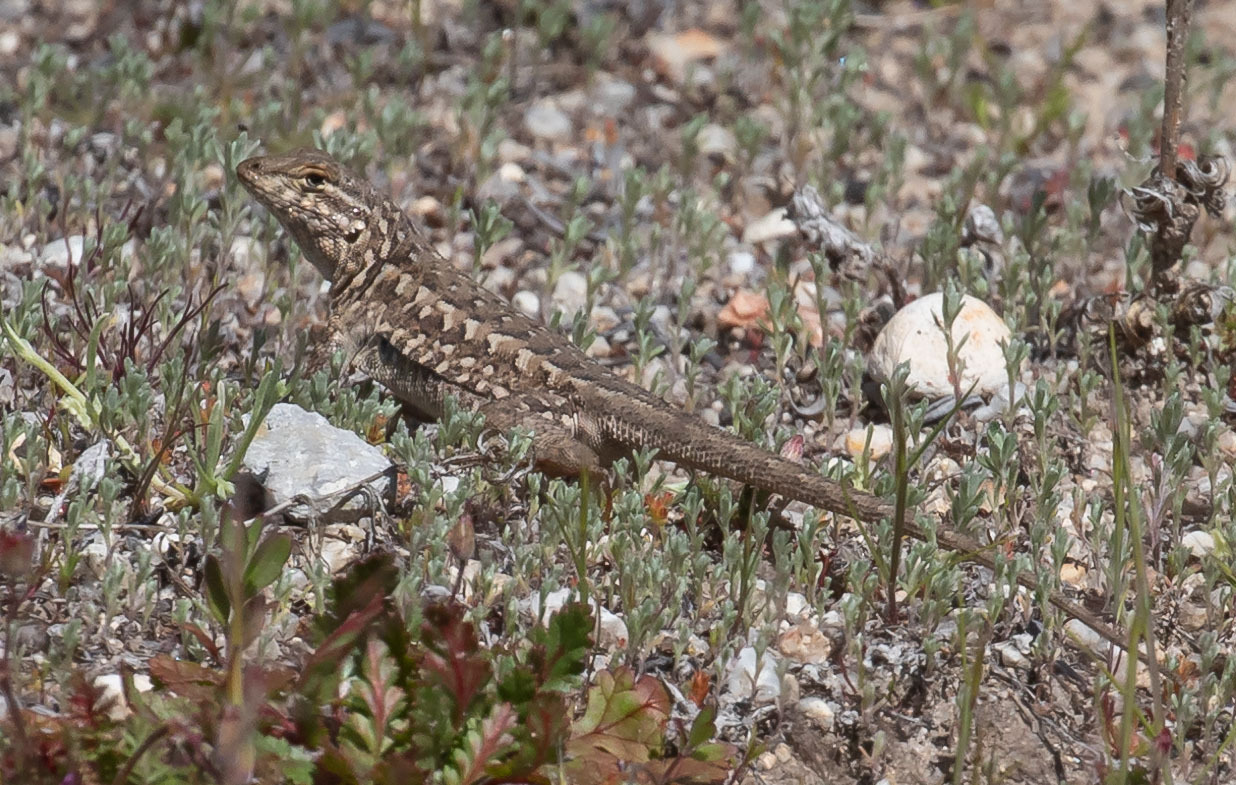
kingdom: Animalia
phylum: Chordata
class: Squamata
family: Phrynosomatidae
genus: Uta
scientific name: Uta stansburiana
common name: Side-blotched lizard
